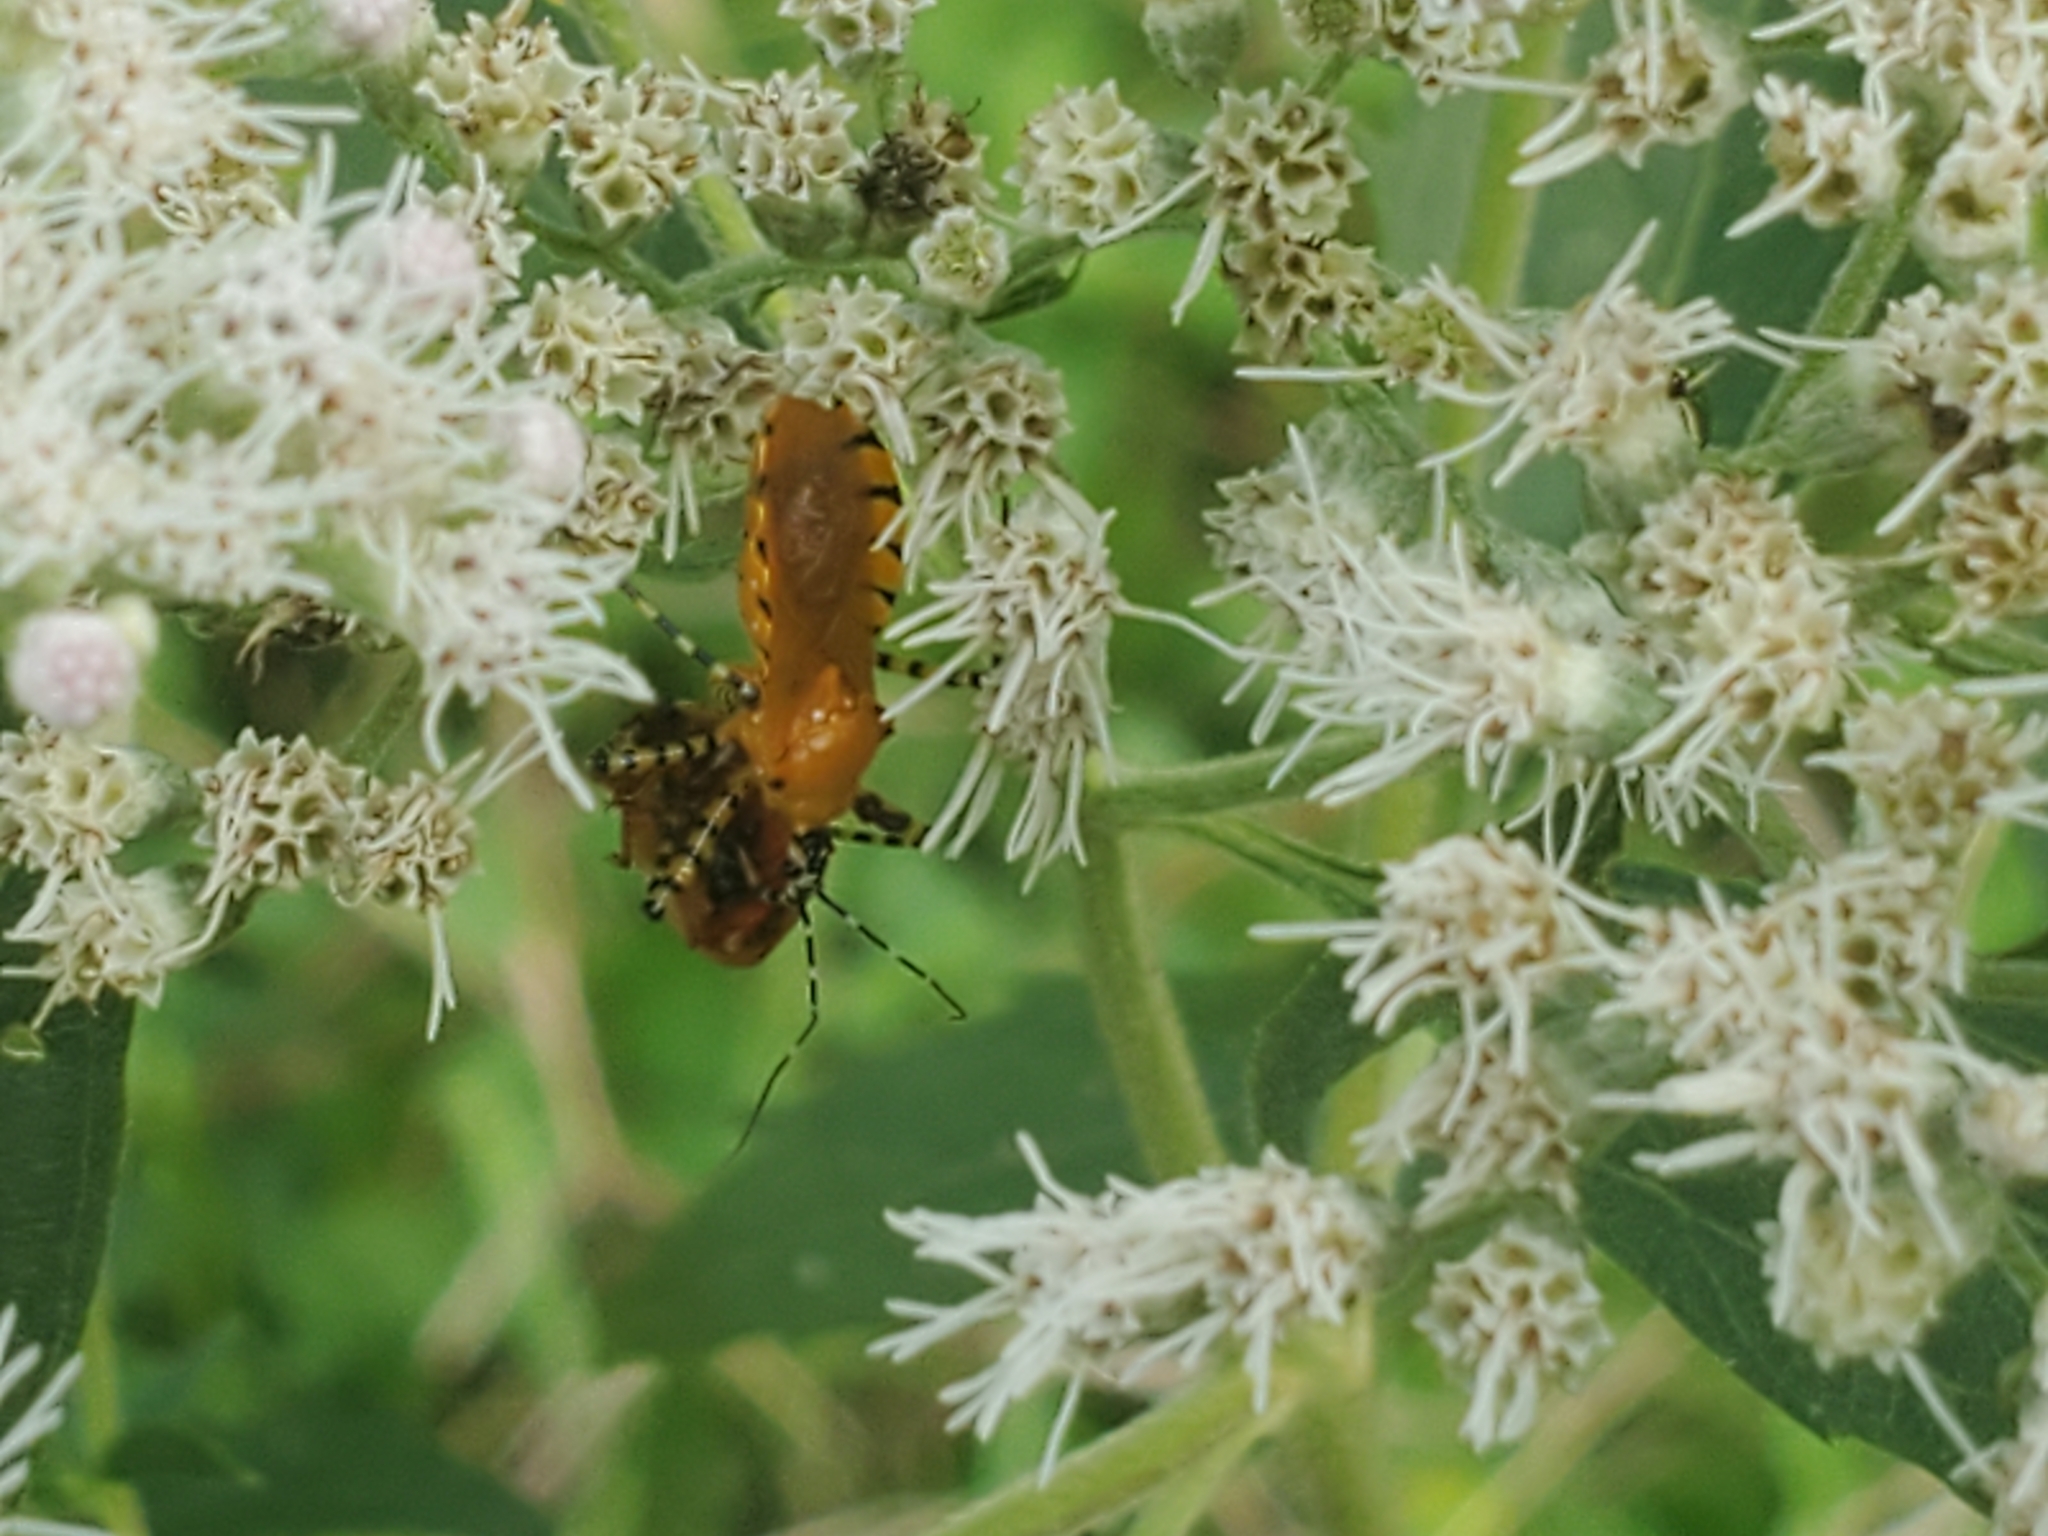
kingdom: Animalia
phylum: Arthropoda
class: Insecta
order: Hemiptera
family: Reduviidae
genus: Pselliopus
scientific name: Pselliopus barberi
